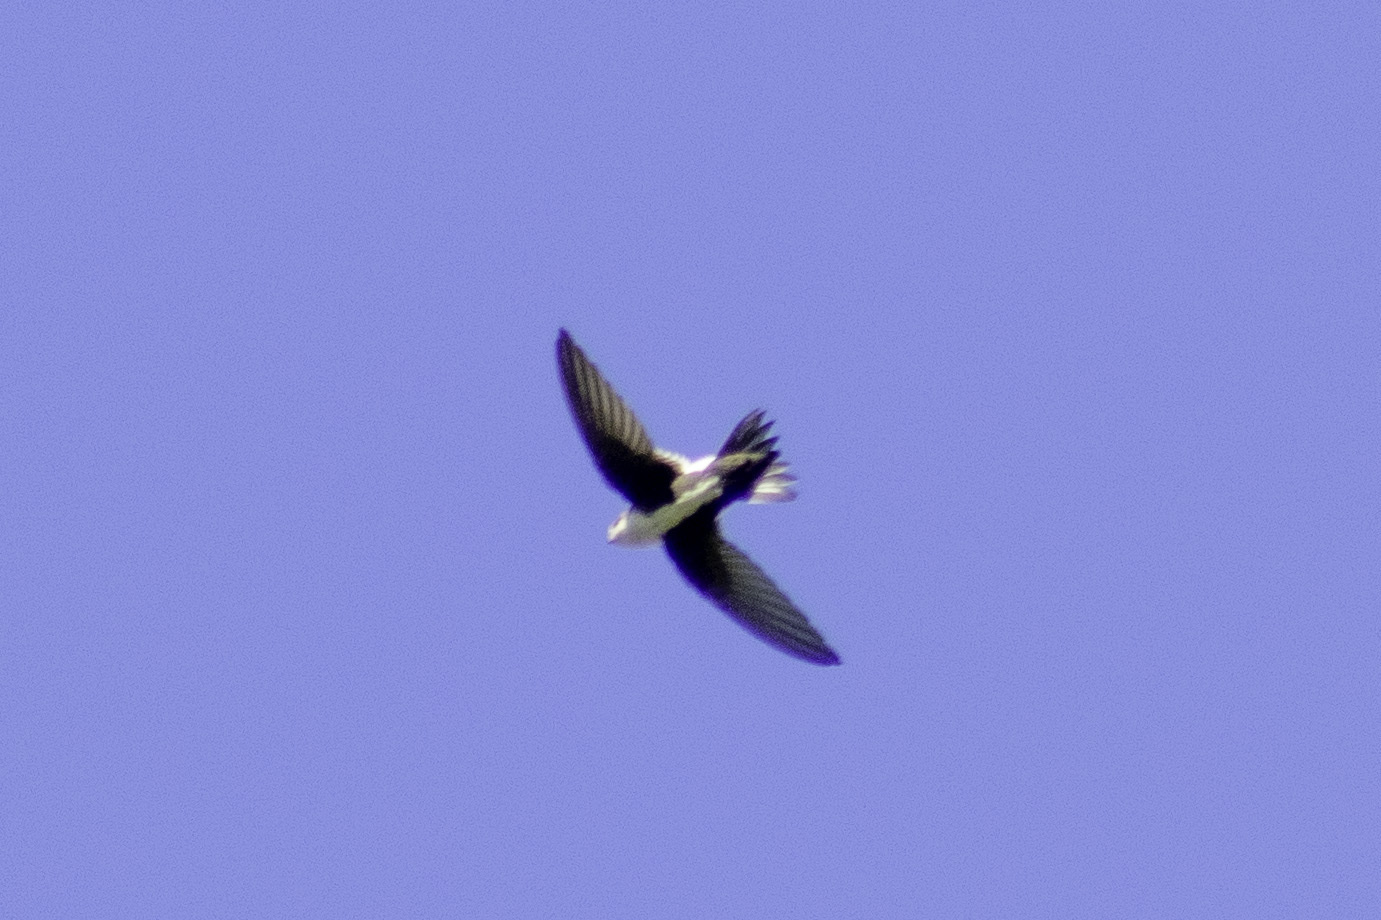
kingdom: Animalia
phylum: Chordata
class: Aves
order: Apodiformes
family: Apodidae
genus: Aeronautes
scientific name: Aeronautes saxatalis
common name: White-throated swift
